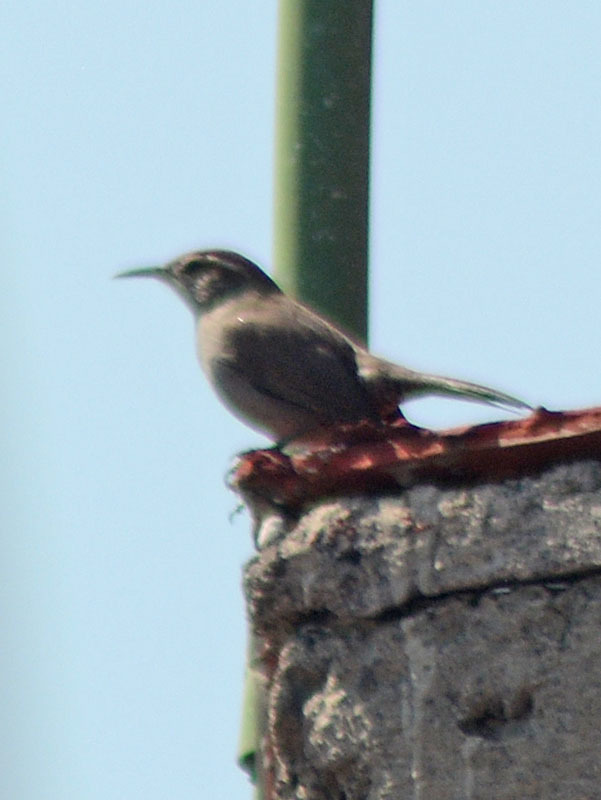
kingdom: Animalia
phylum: Chordata
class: Aves
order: Passeriformes
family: Troglodytidae
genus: Thryomanes
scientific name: Thryomanes bewickii
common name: Bewick's wren
